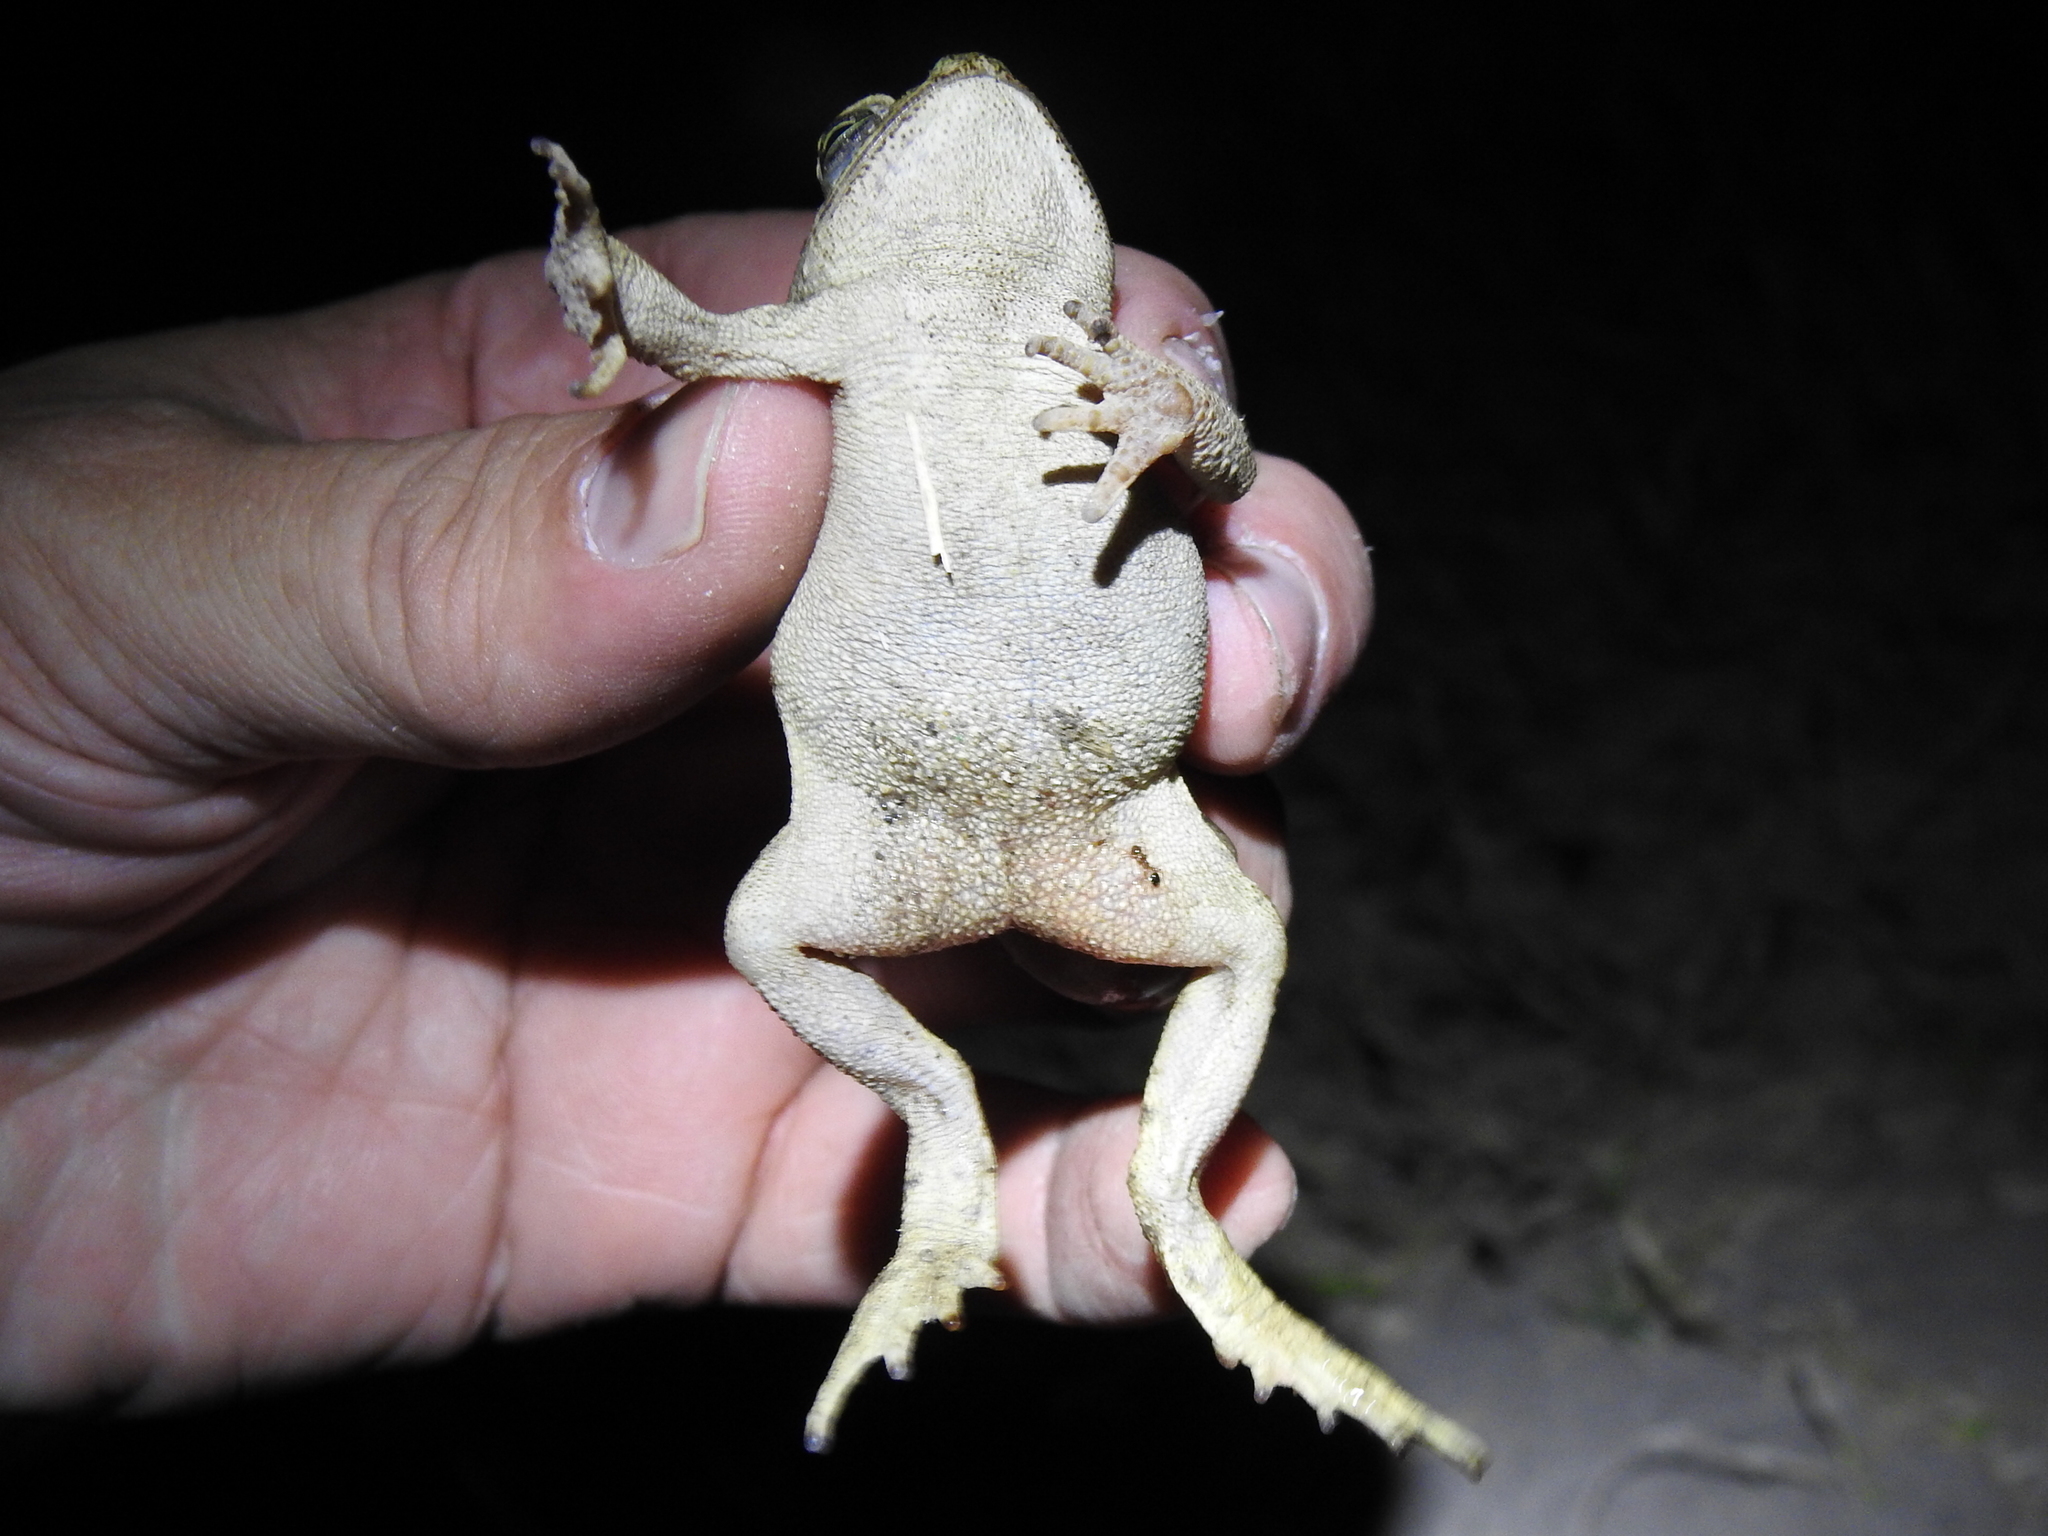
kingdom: Animalia
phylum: Chordata
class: Amphibia
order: Anura
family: Bufonidae
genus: Rhinella
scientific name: Rhinella horribilis
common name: Mesoamerican cane toad
